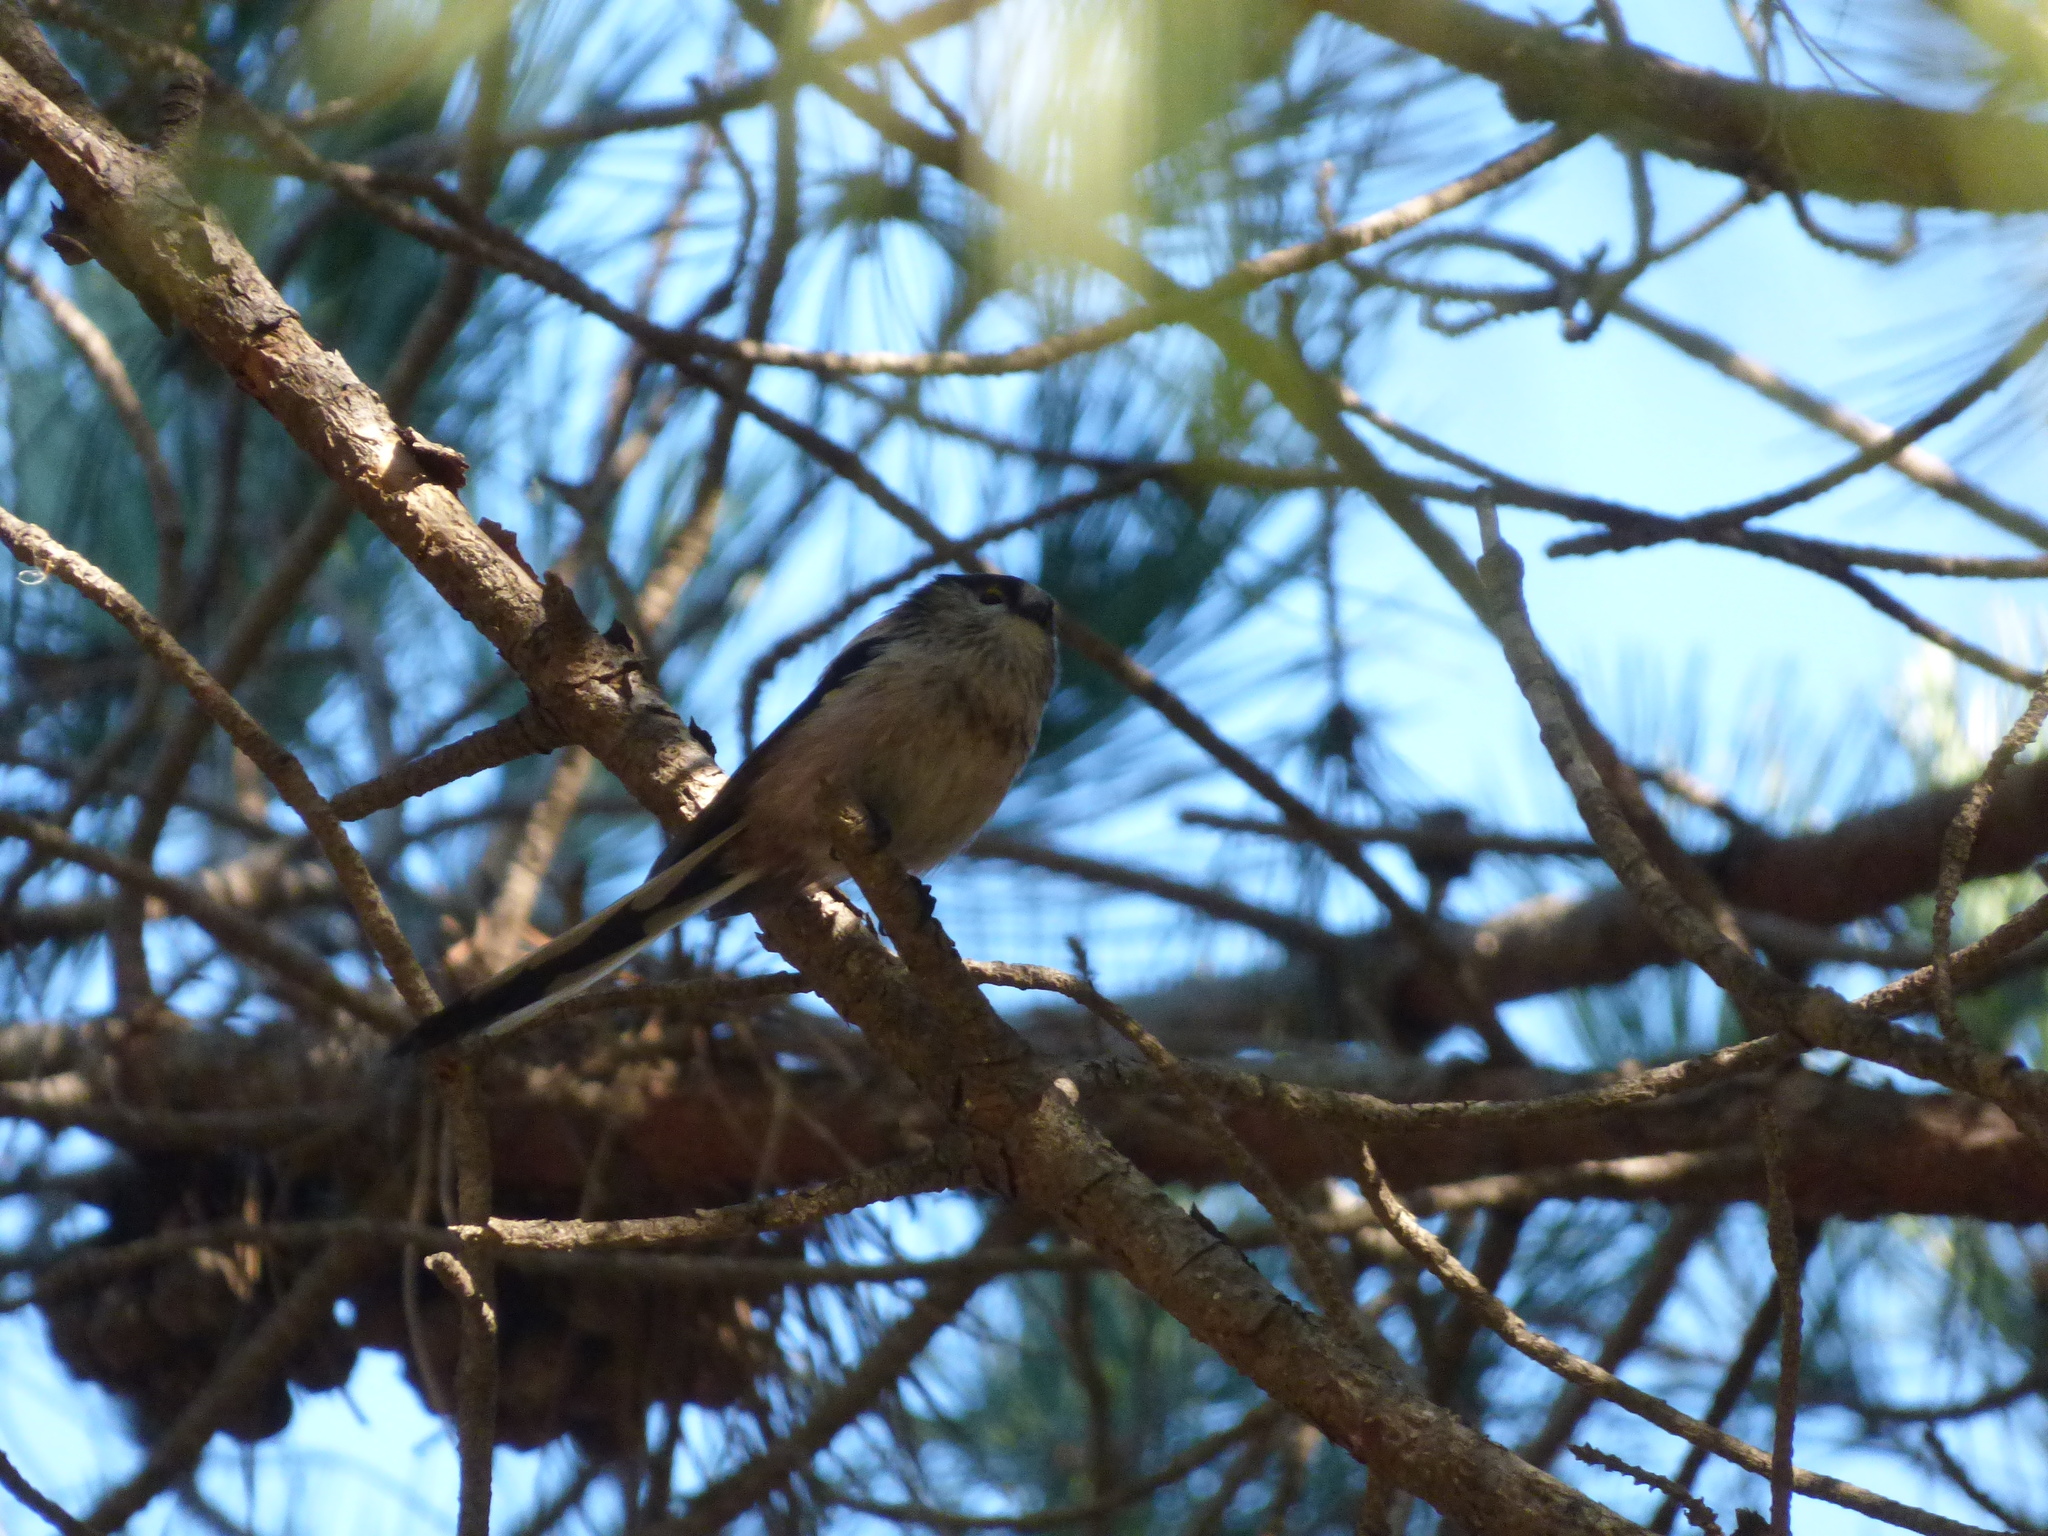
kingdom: Animalia
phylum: Chordata
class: Aves
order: Passeriformes
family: Aegithalidae
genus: Aegithalos
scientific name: Aegithalos caudatus
